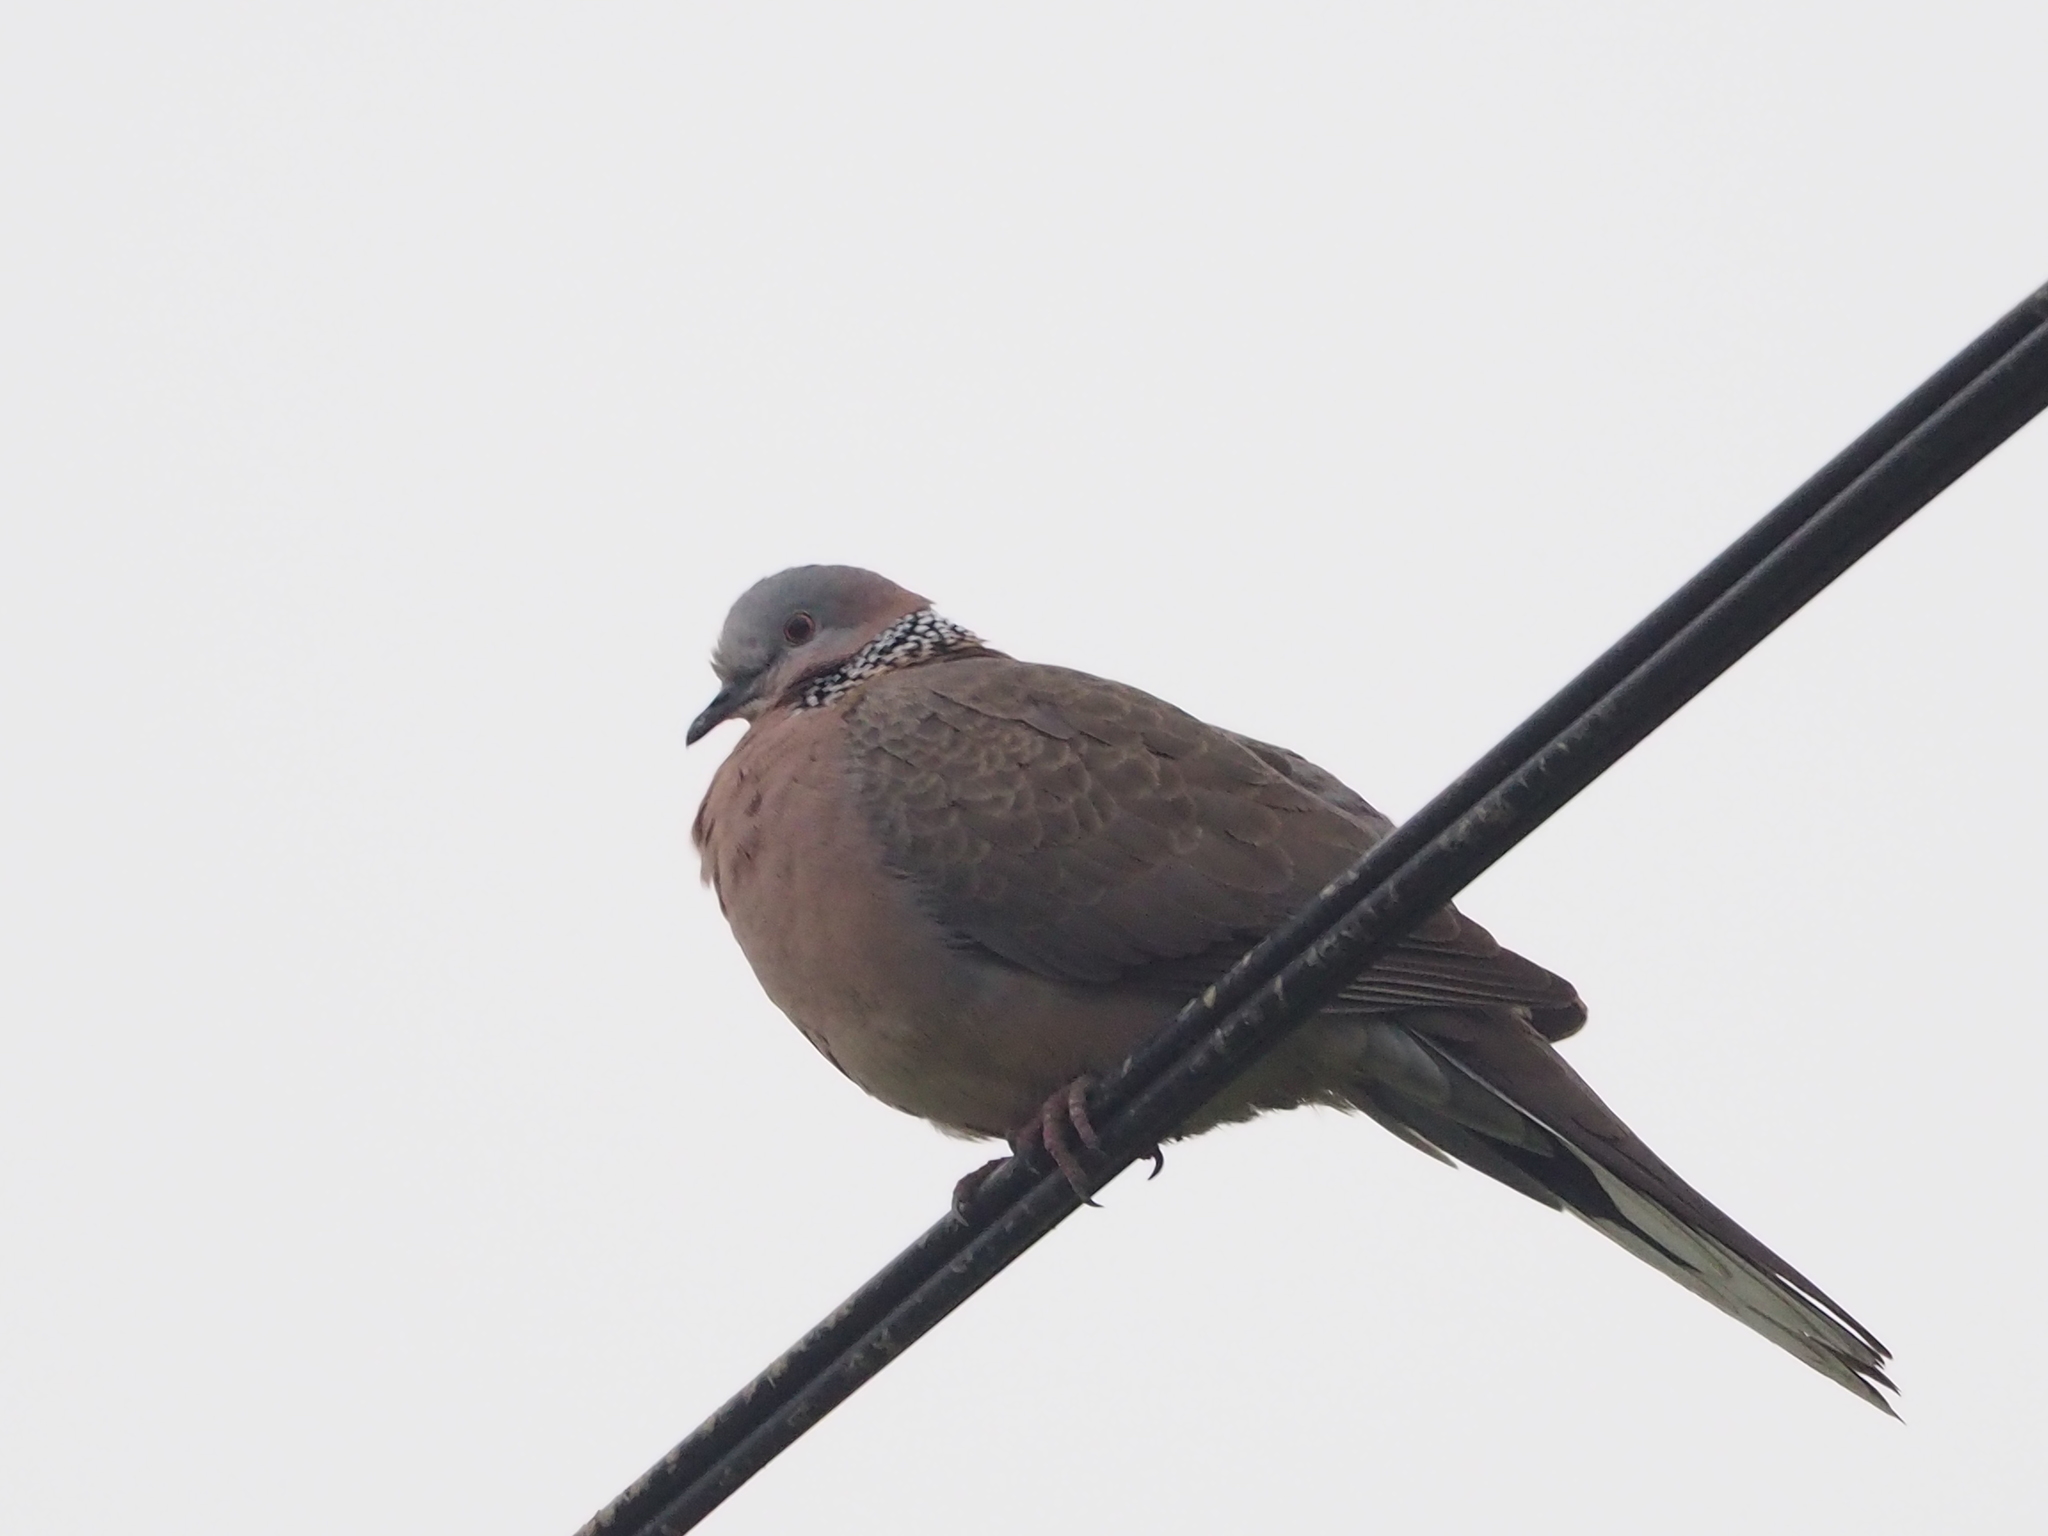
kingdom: Animalia
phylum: Chordata
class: Aves
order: Columbiformes
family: Columbidae
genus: Spilopelia
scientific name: Spilopelia chinensis
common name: Spotted dove
